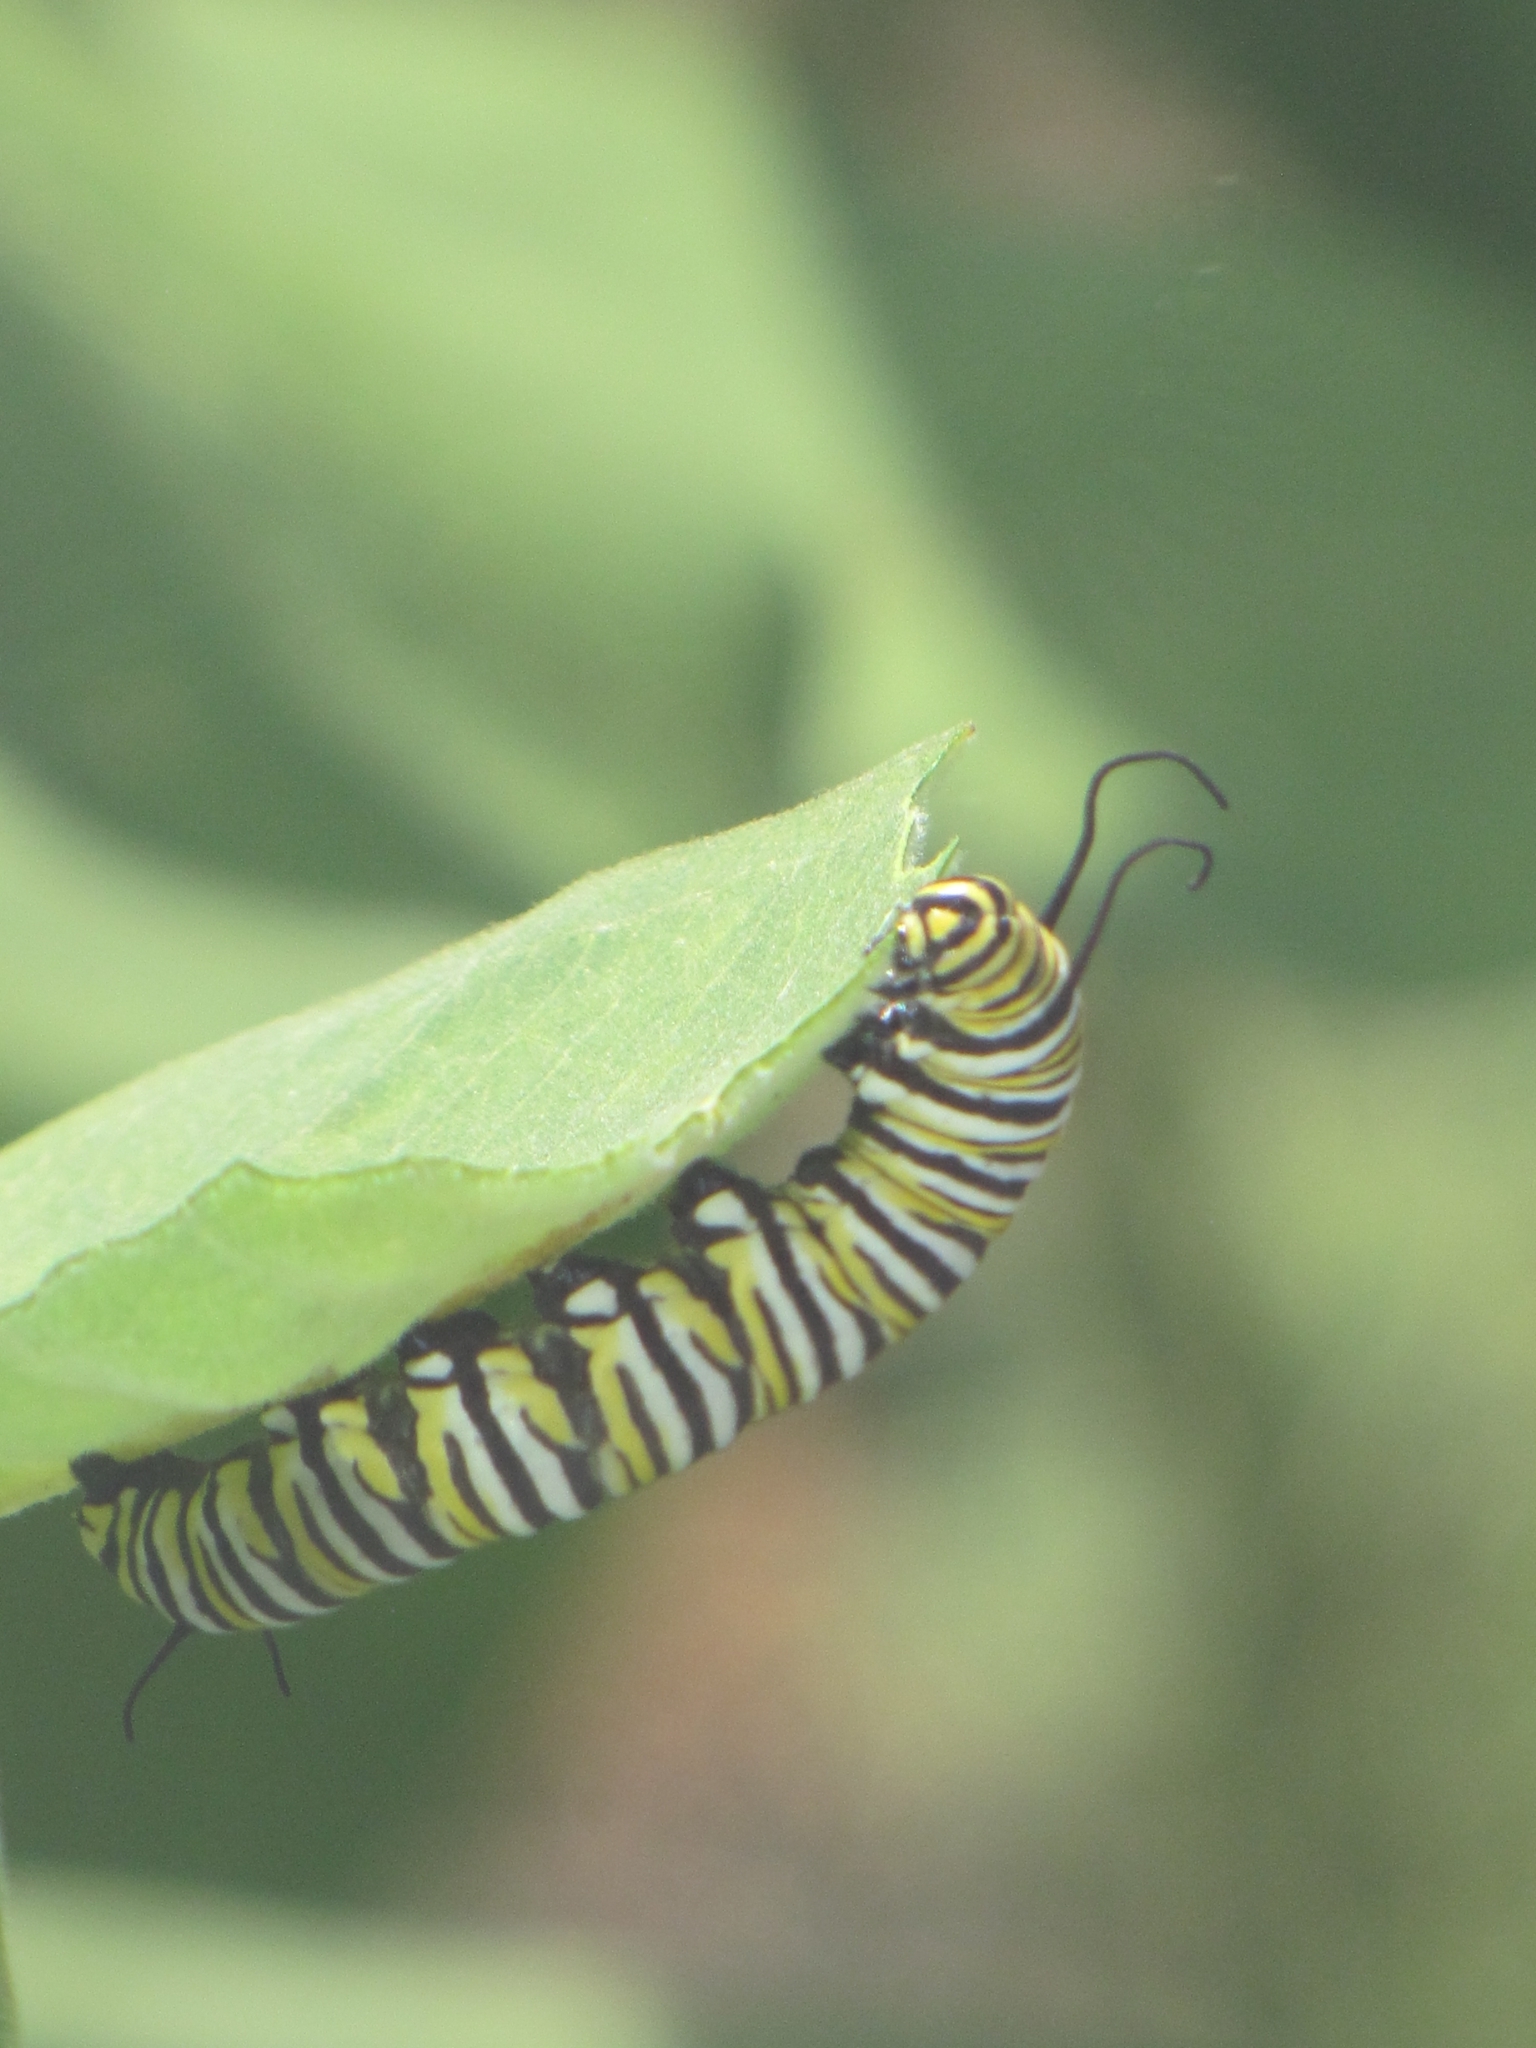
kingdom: Animalia
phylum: Arthropoda
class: Insecta
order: Lepidoptera
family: Nymphalidae
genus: Danaus
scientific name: Danaus plexippus
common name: Monarch
